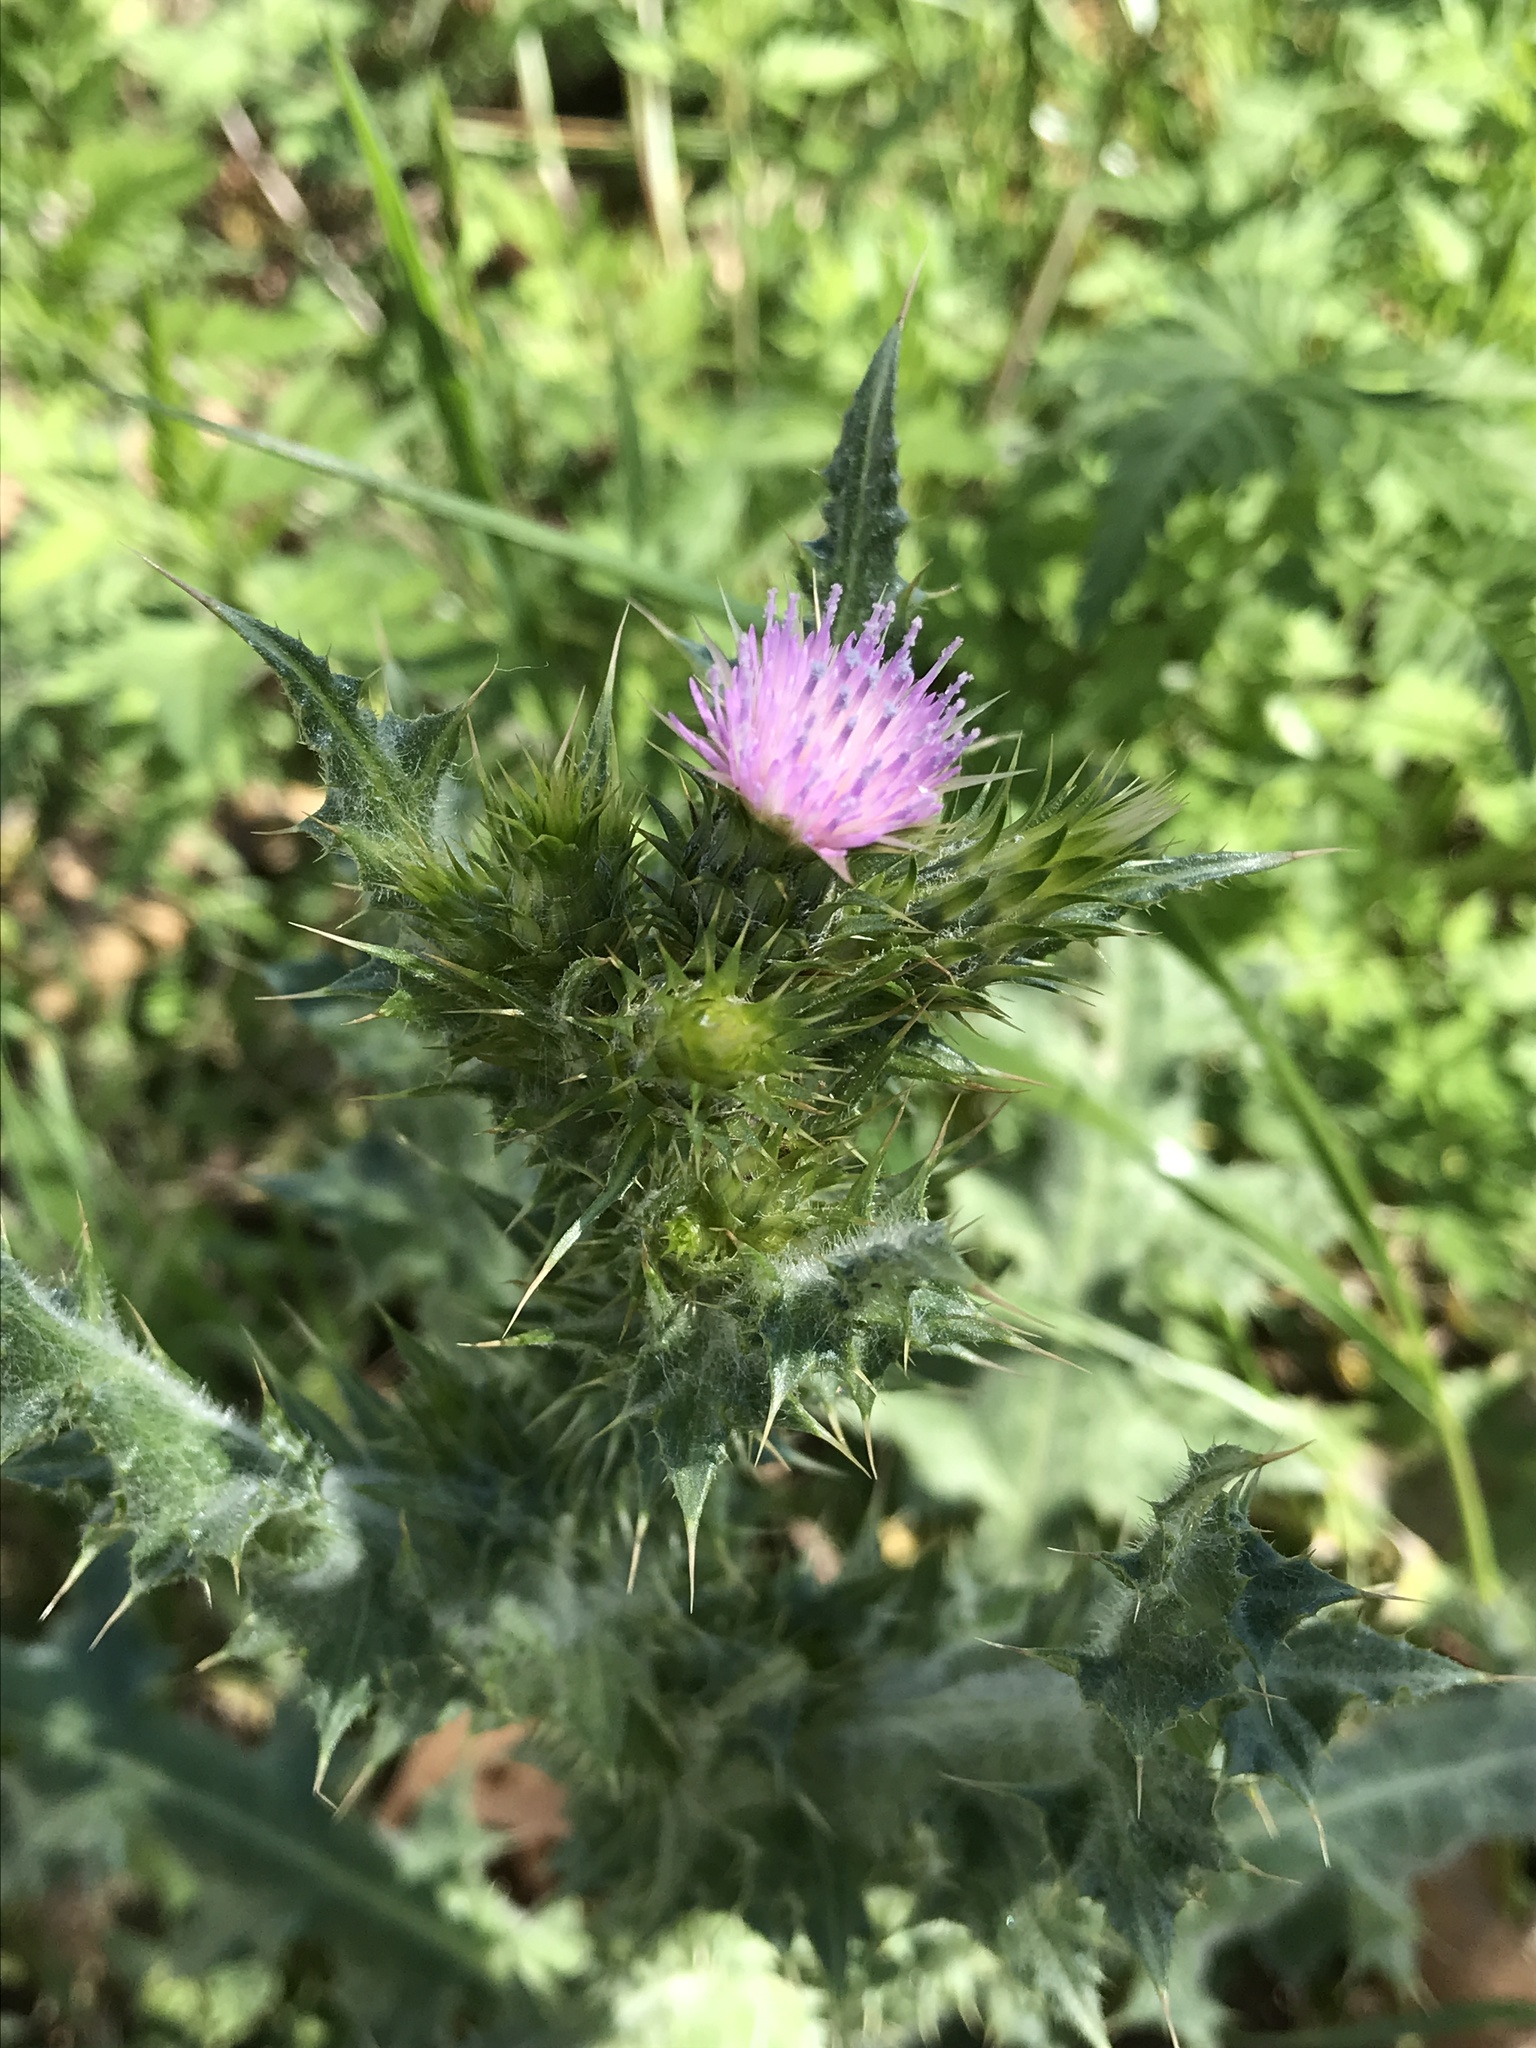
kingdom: Plantae
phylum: Tracheophyta
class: Magnoliopsida
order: Asterales
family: Asteraceae
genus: Carduus
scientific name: Carduus tenuiflorus
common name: Slender thistle
